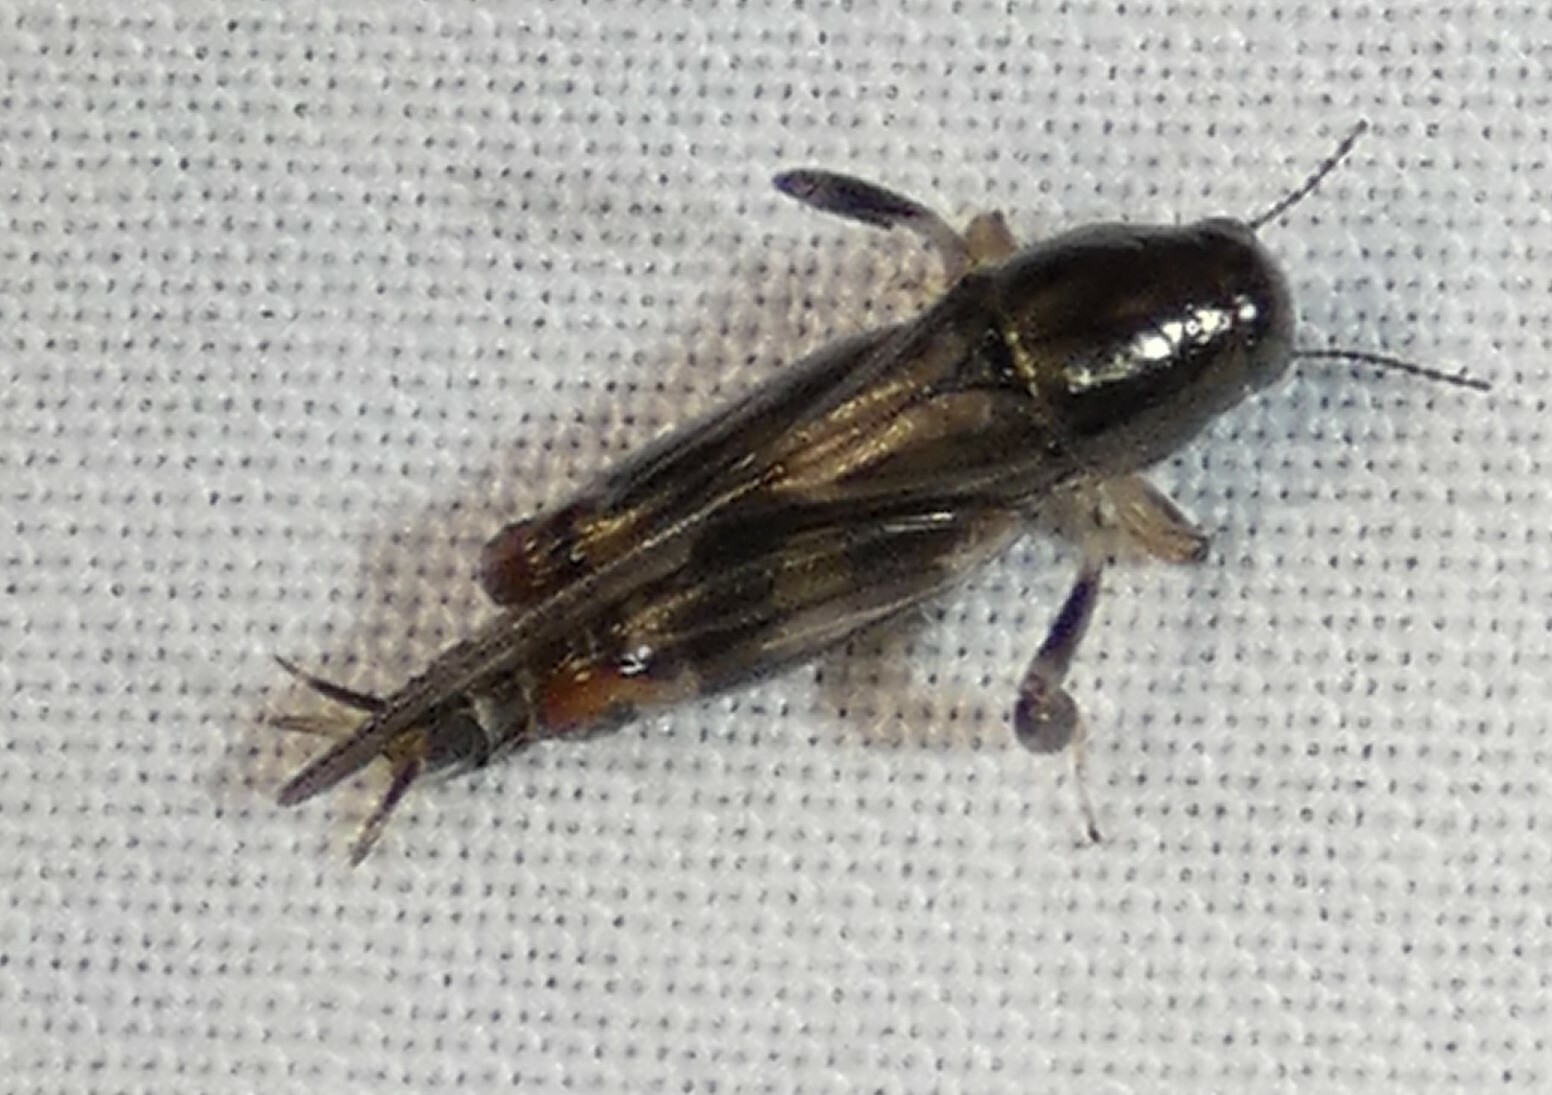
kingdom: Animalia
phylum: Arthropoda
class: Insecta
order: Orthoptera
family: Tridactylidae
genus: Neotridactylus
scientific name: Neotridactylus apicialis
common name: Larger pygmy locust
